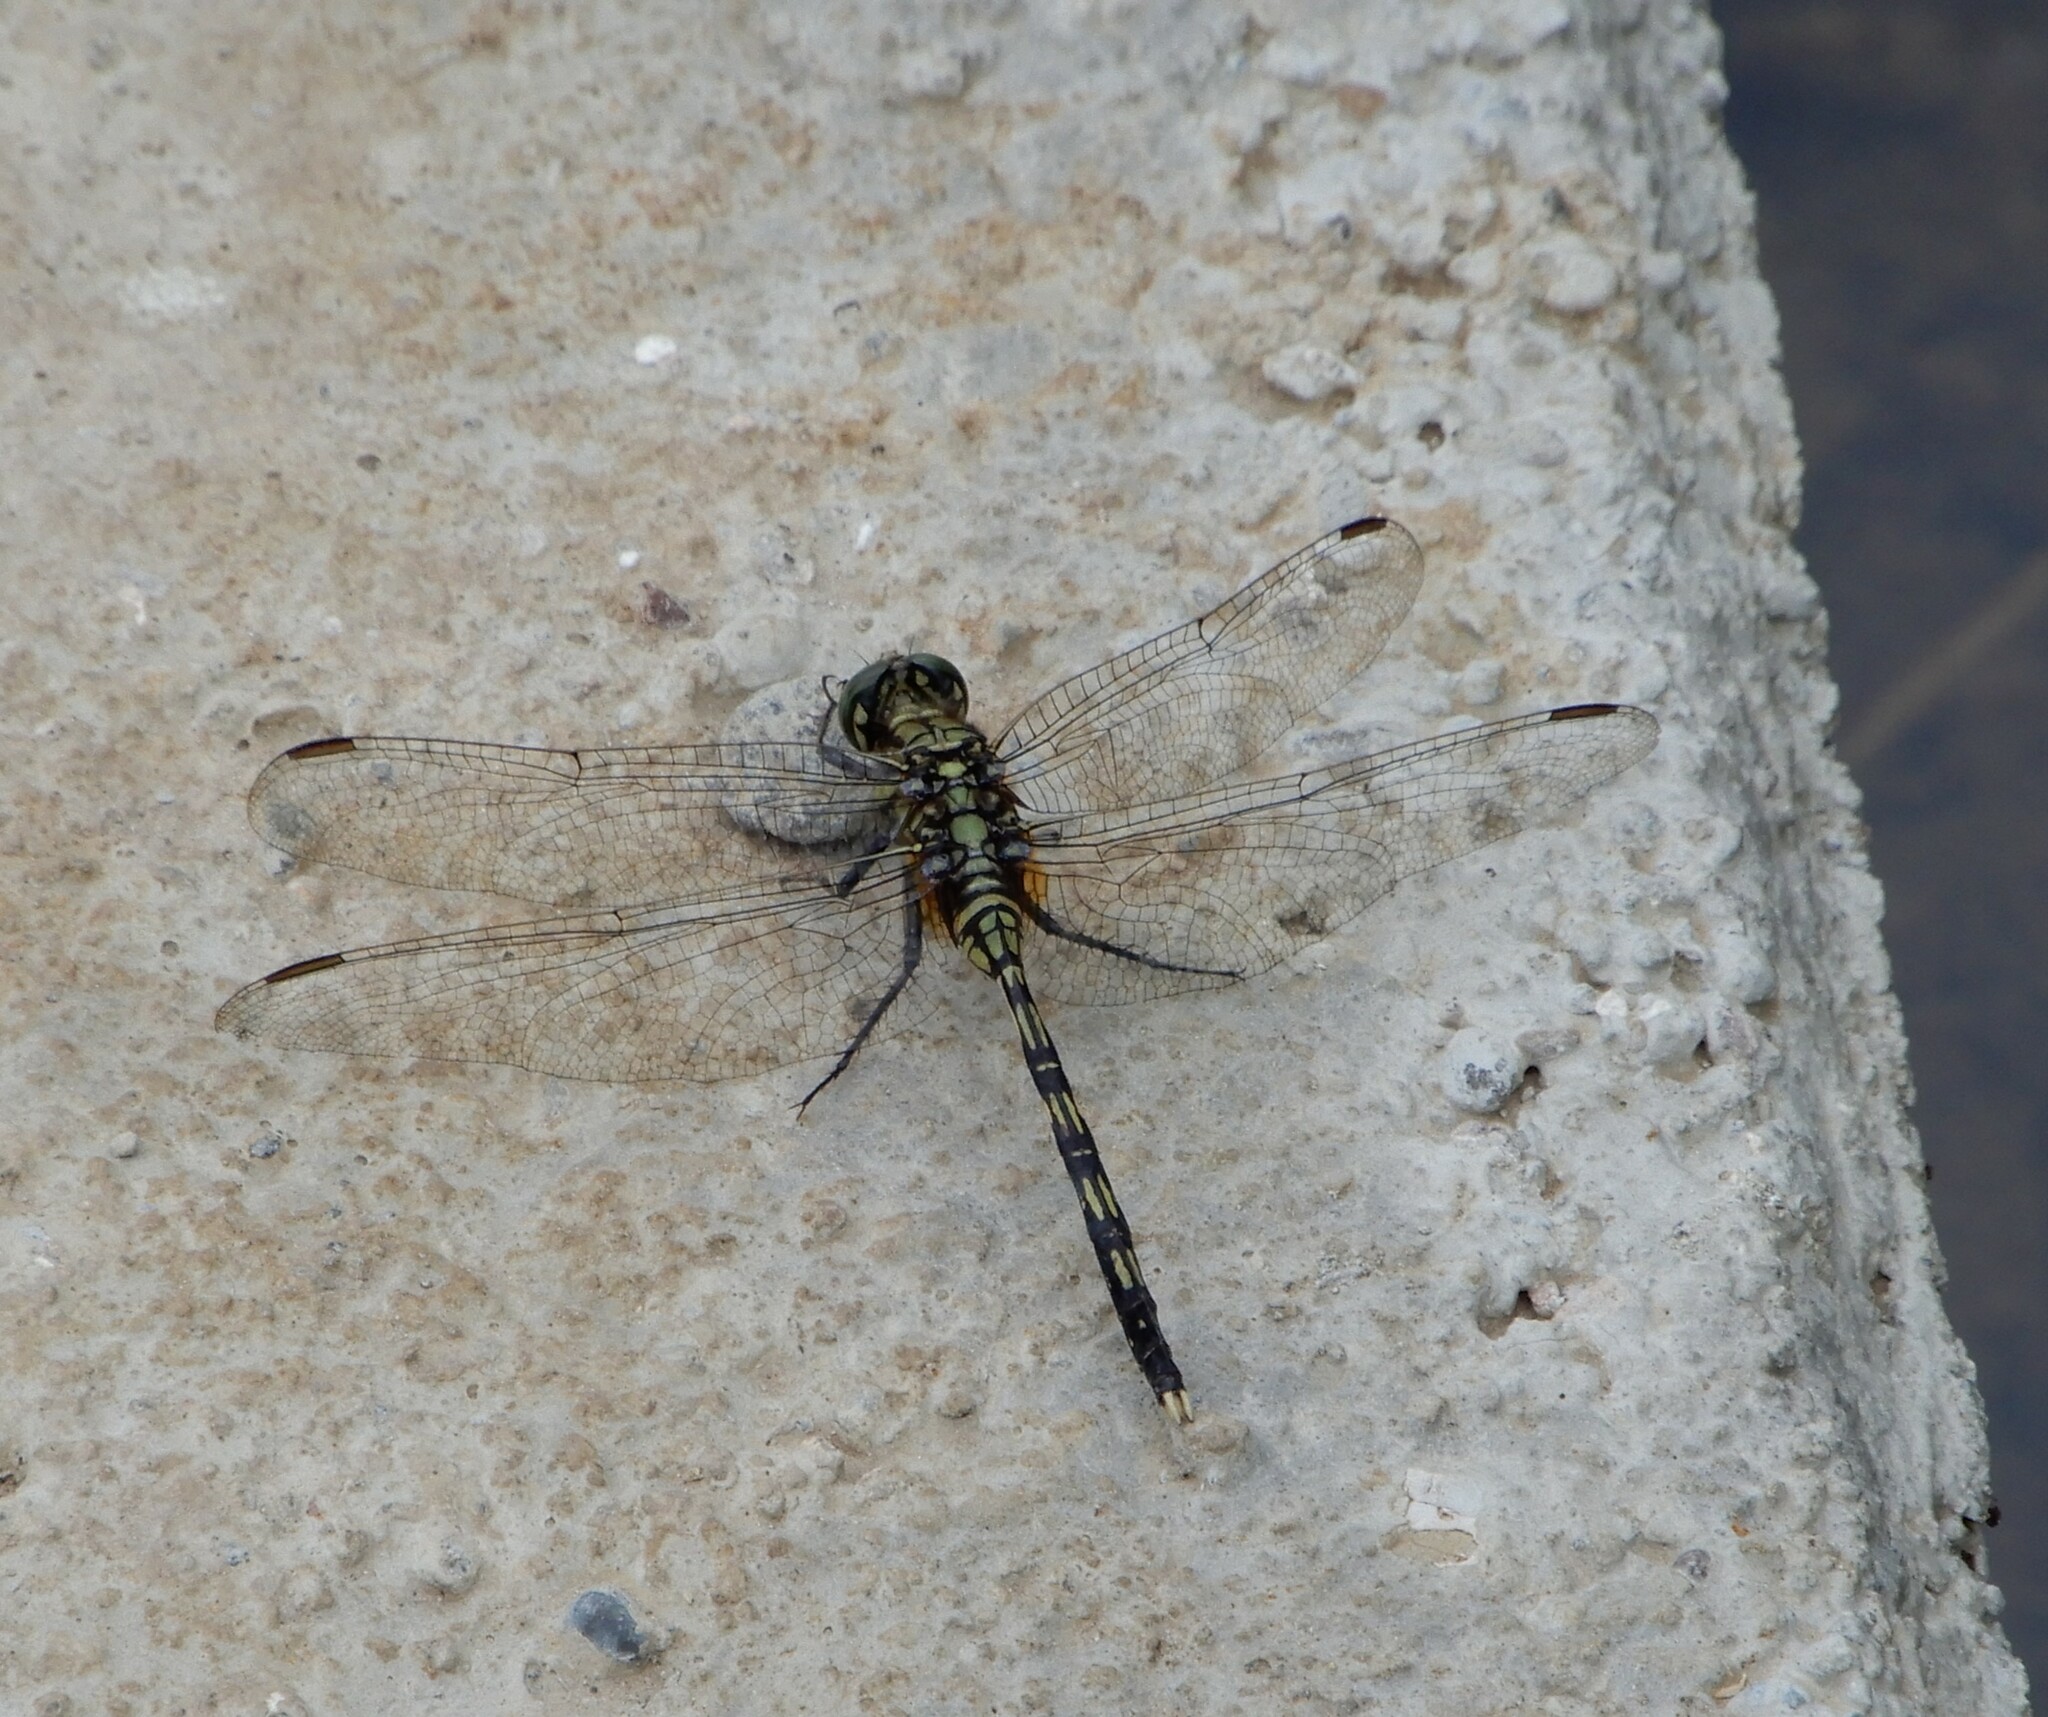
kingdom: Animalia
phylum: Arthropoda
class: Insecta
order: Odonata
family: Libellulidae
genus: Orthetrum
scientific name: Orthetrum serapia
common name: Green skimmer
